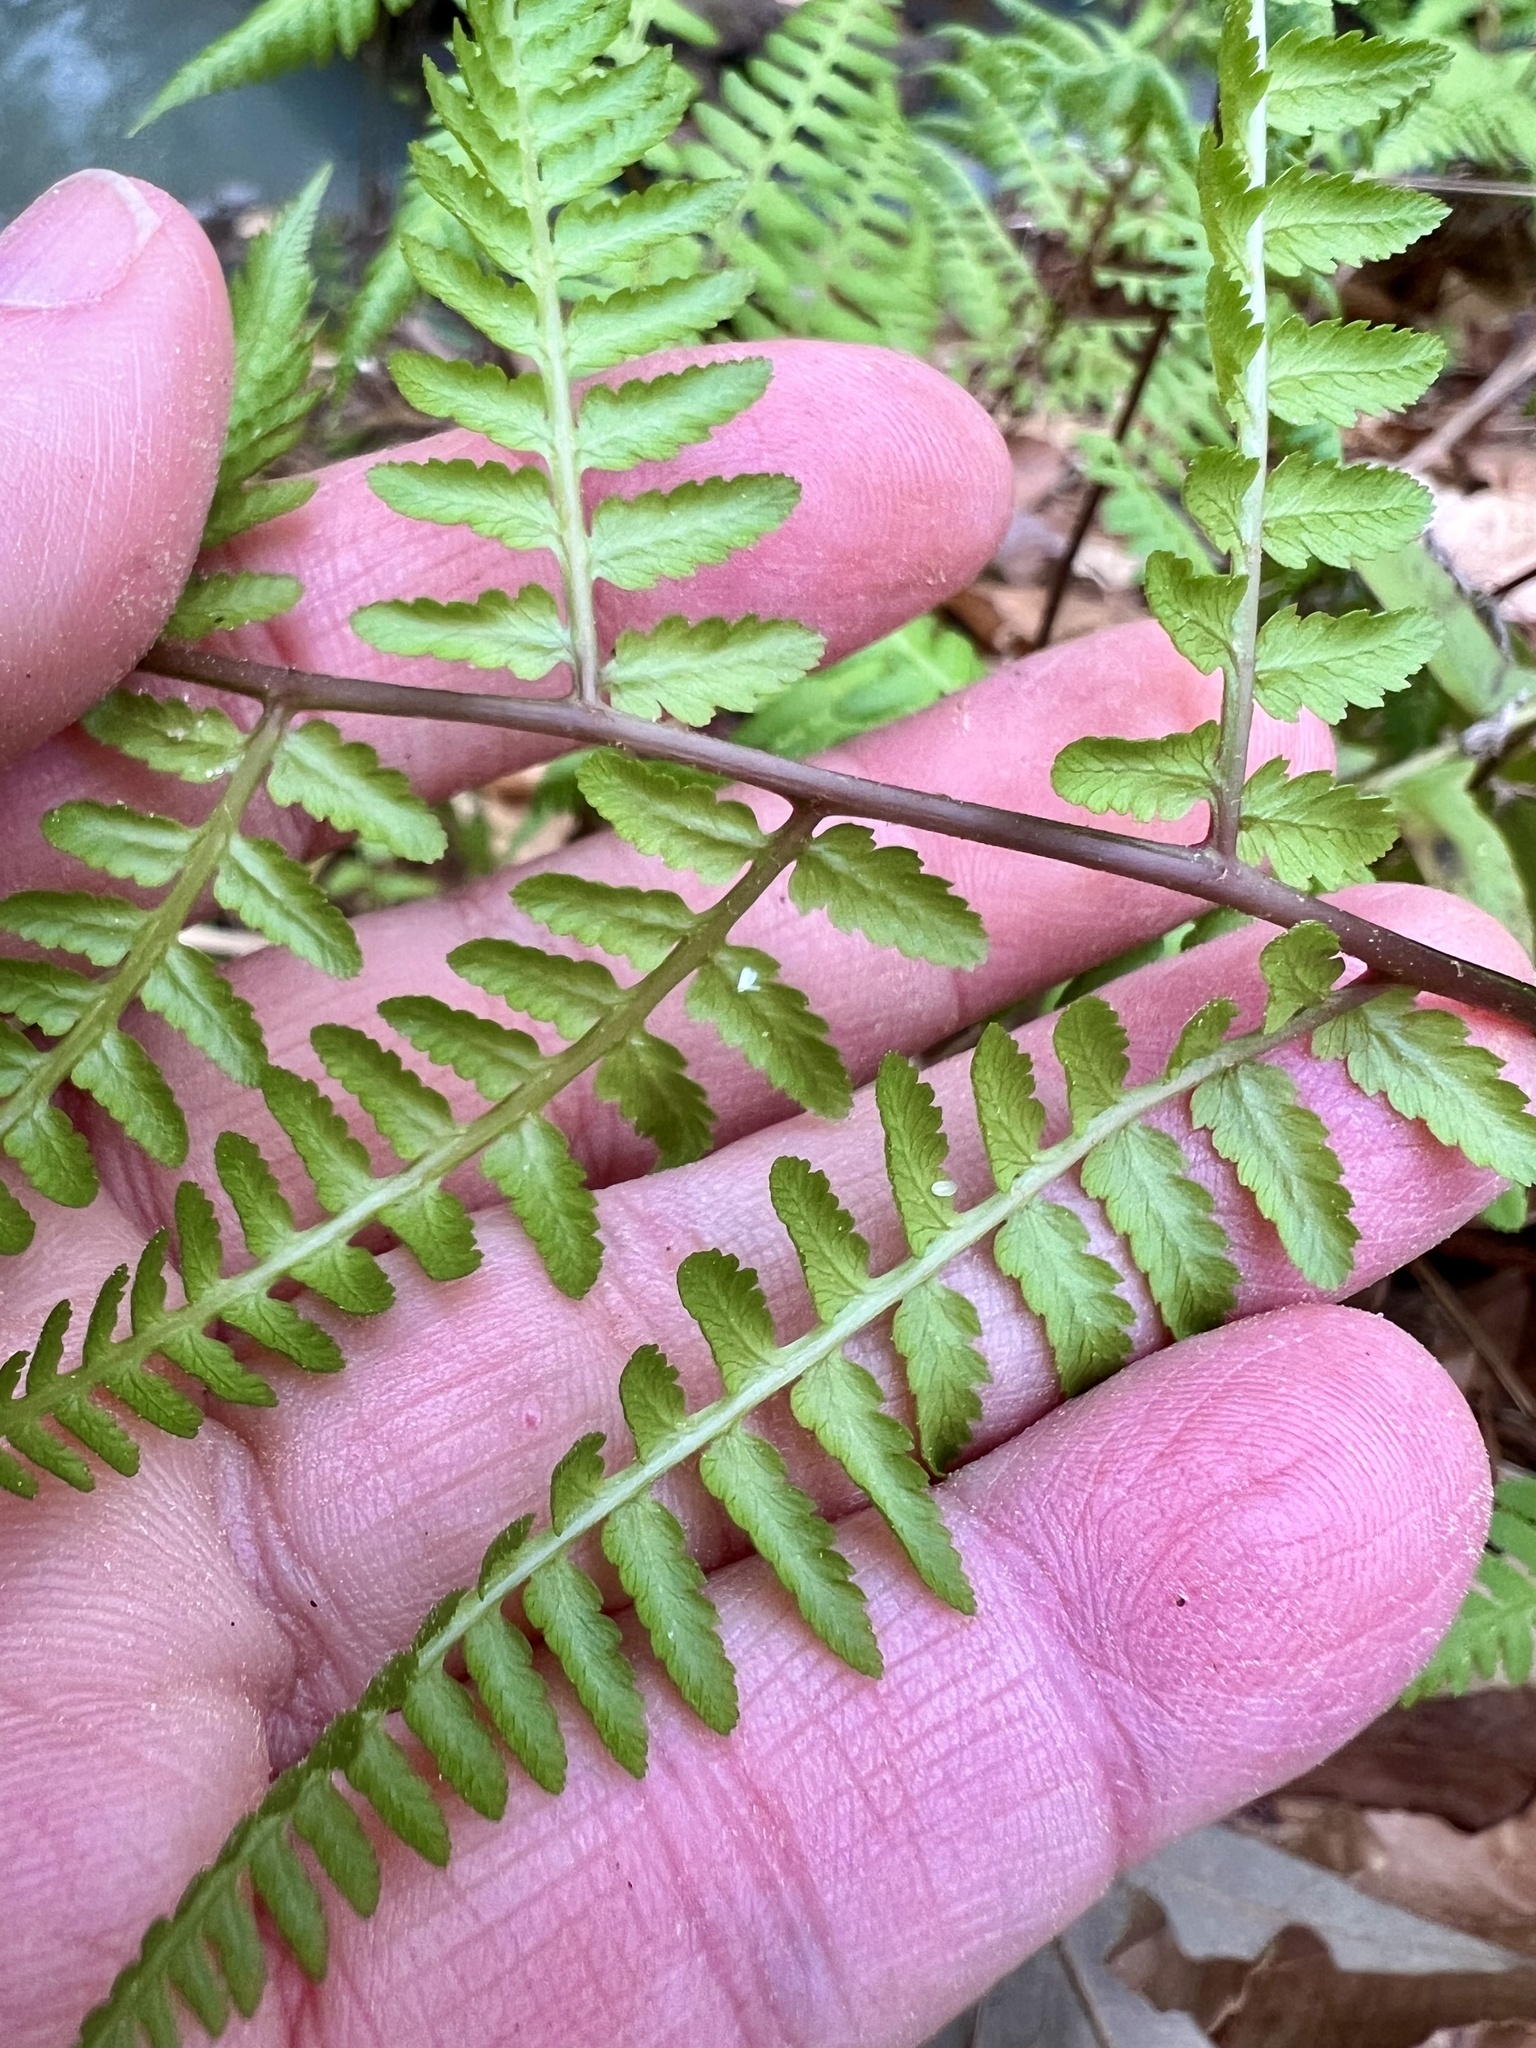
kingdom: Plantae
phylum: Tracheophyta
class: Polypodiopsida
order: Polypodiales
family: Athyriaceae
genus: Athyrium
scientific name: Athyrium asplenioides
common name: Southern lady fern
